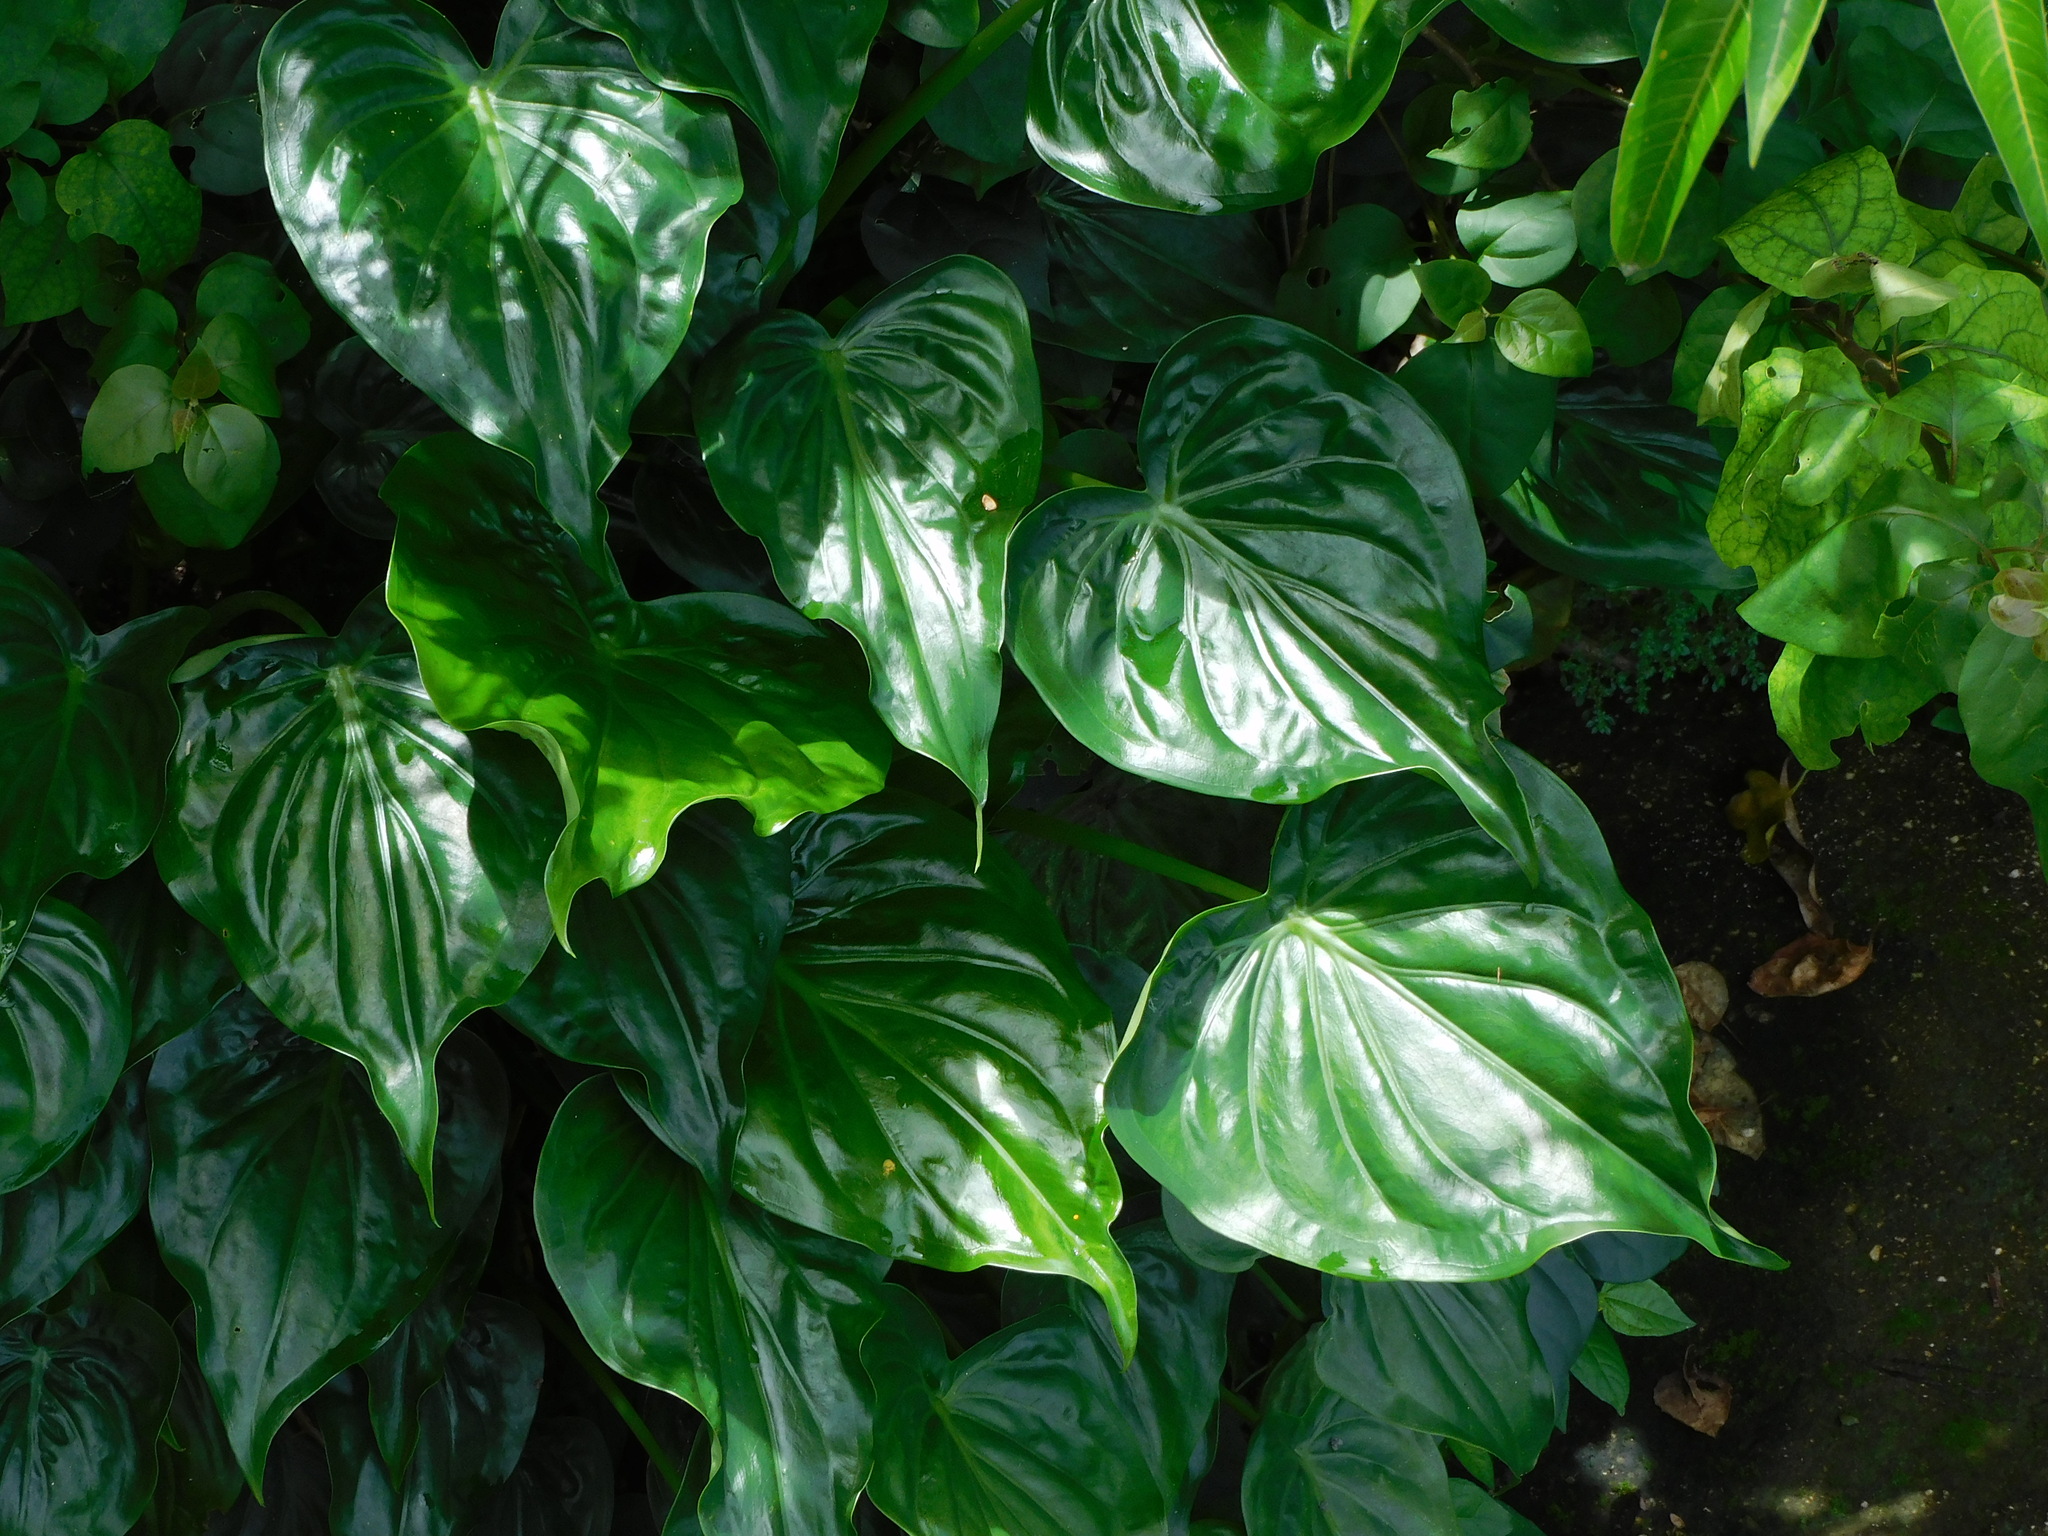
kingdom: Plantae
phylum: Tracheophyta
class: Liliopsida
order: Alismatales
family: Araceae
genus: Alocasia
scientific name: Alocasia cucullata
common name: Buddha's hand
